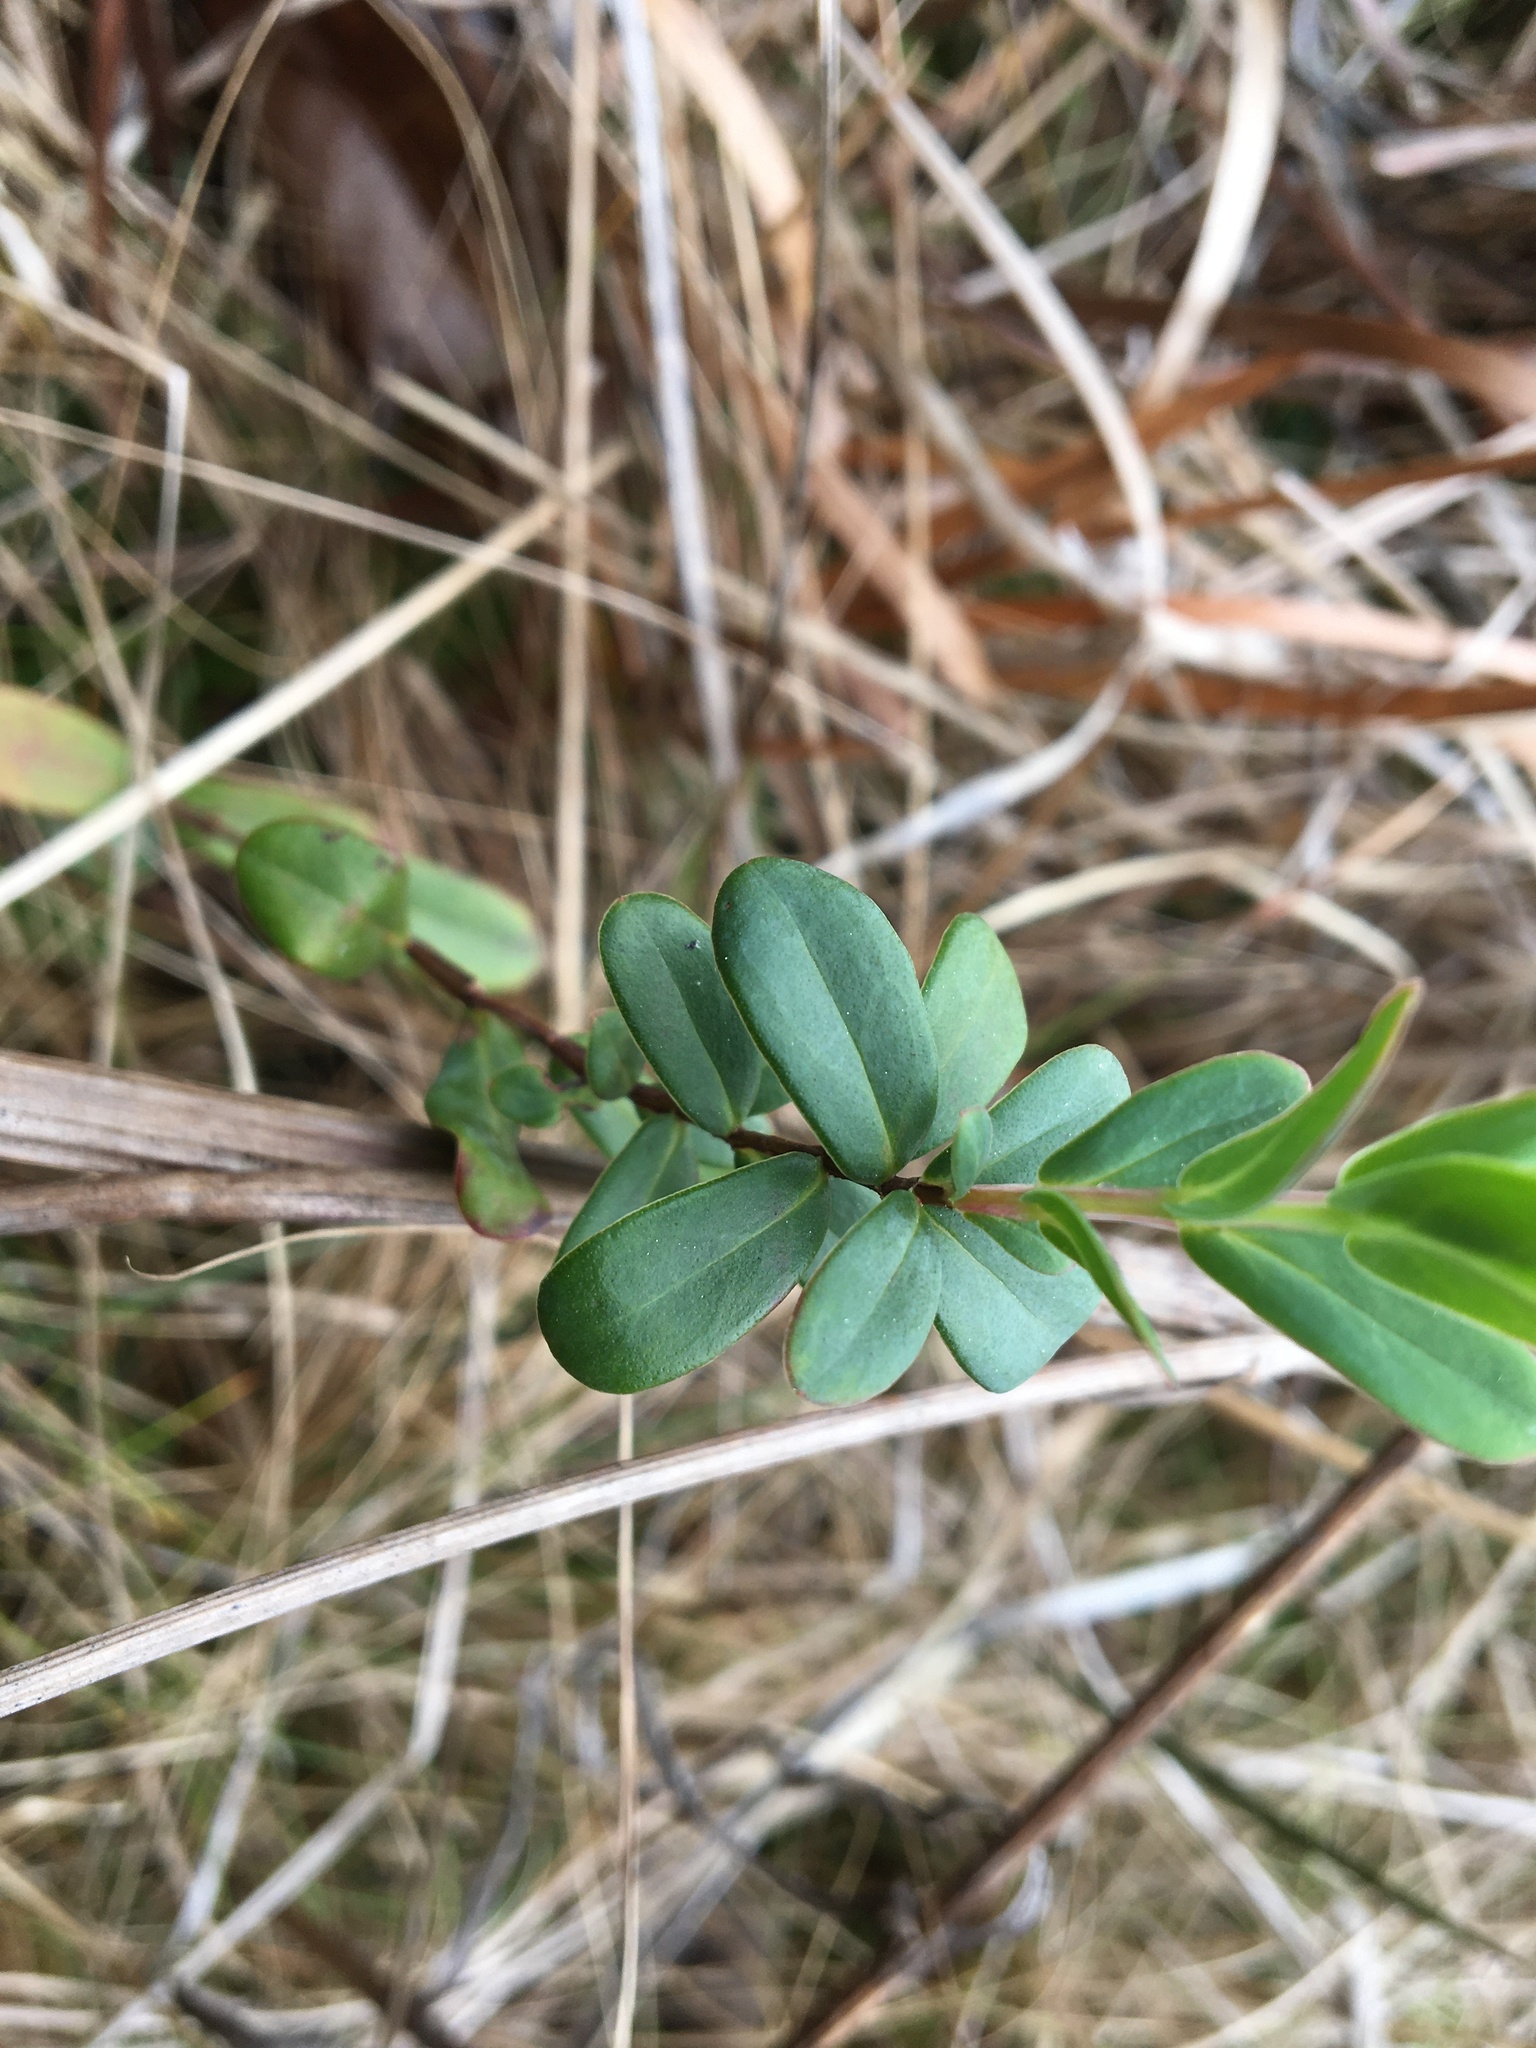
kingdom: Plantae
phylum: Tracheophyta
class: Magnoliopsida
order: Malpighiales
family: Hypericaceae
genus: Hypericum
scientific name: Hypericum crux-andreae
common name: St.-peter's-wort
